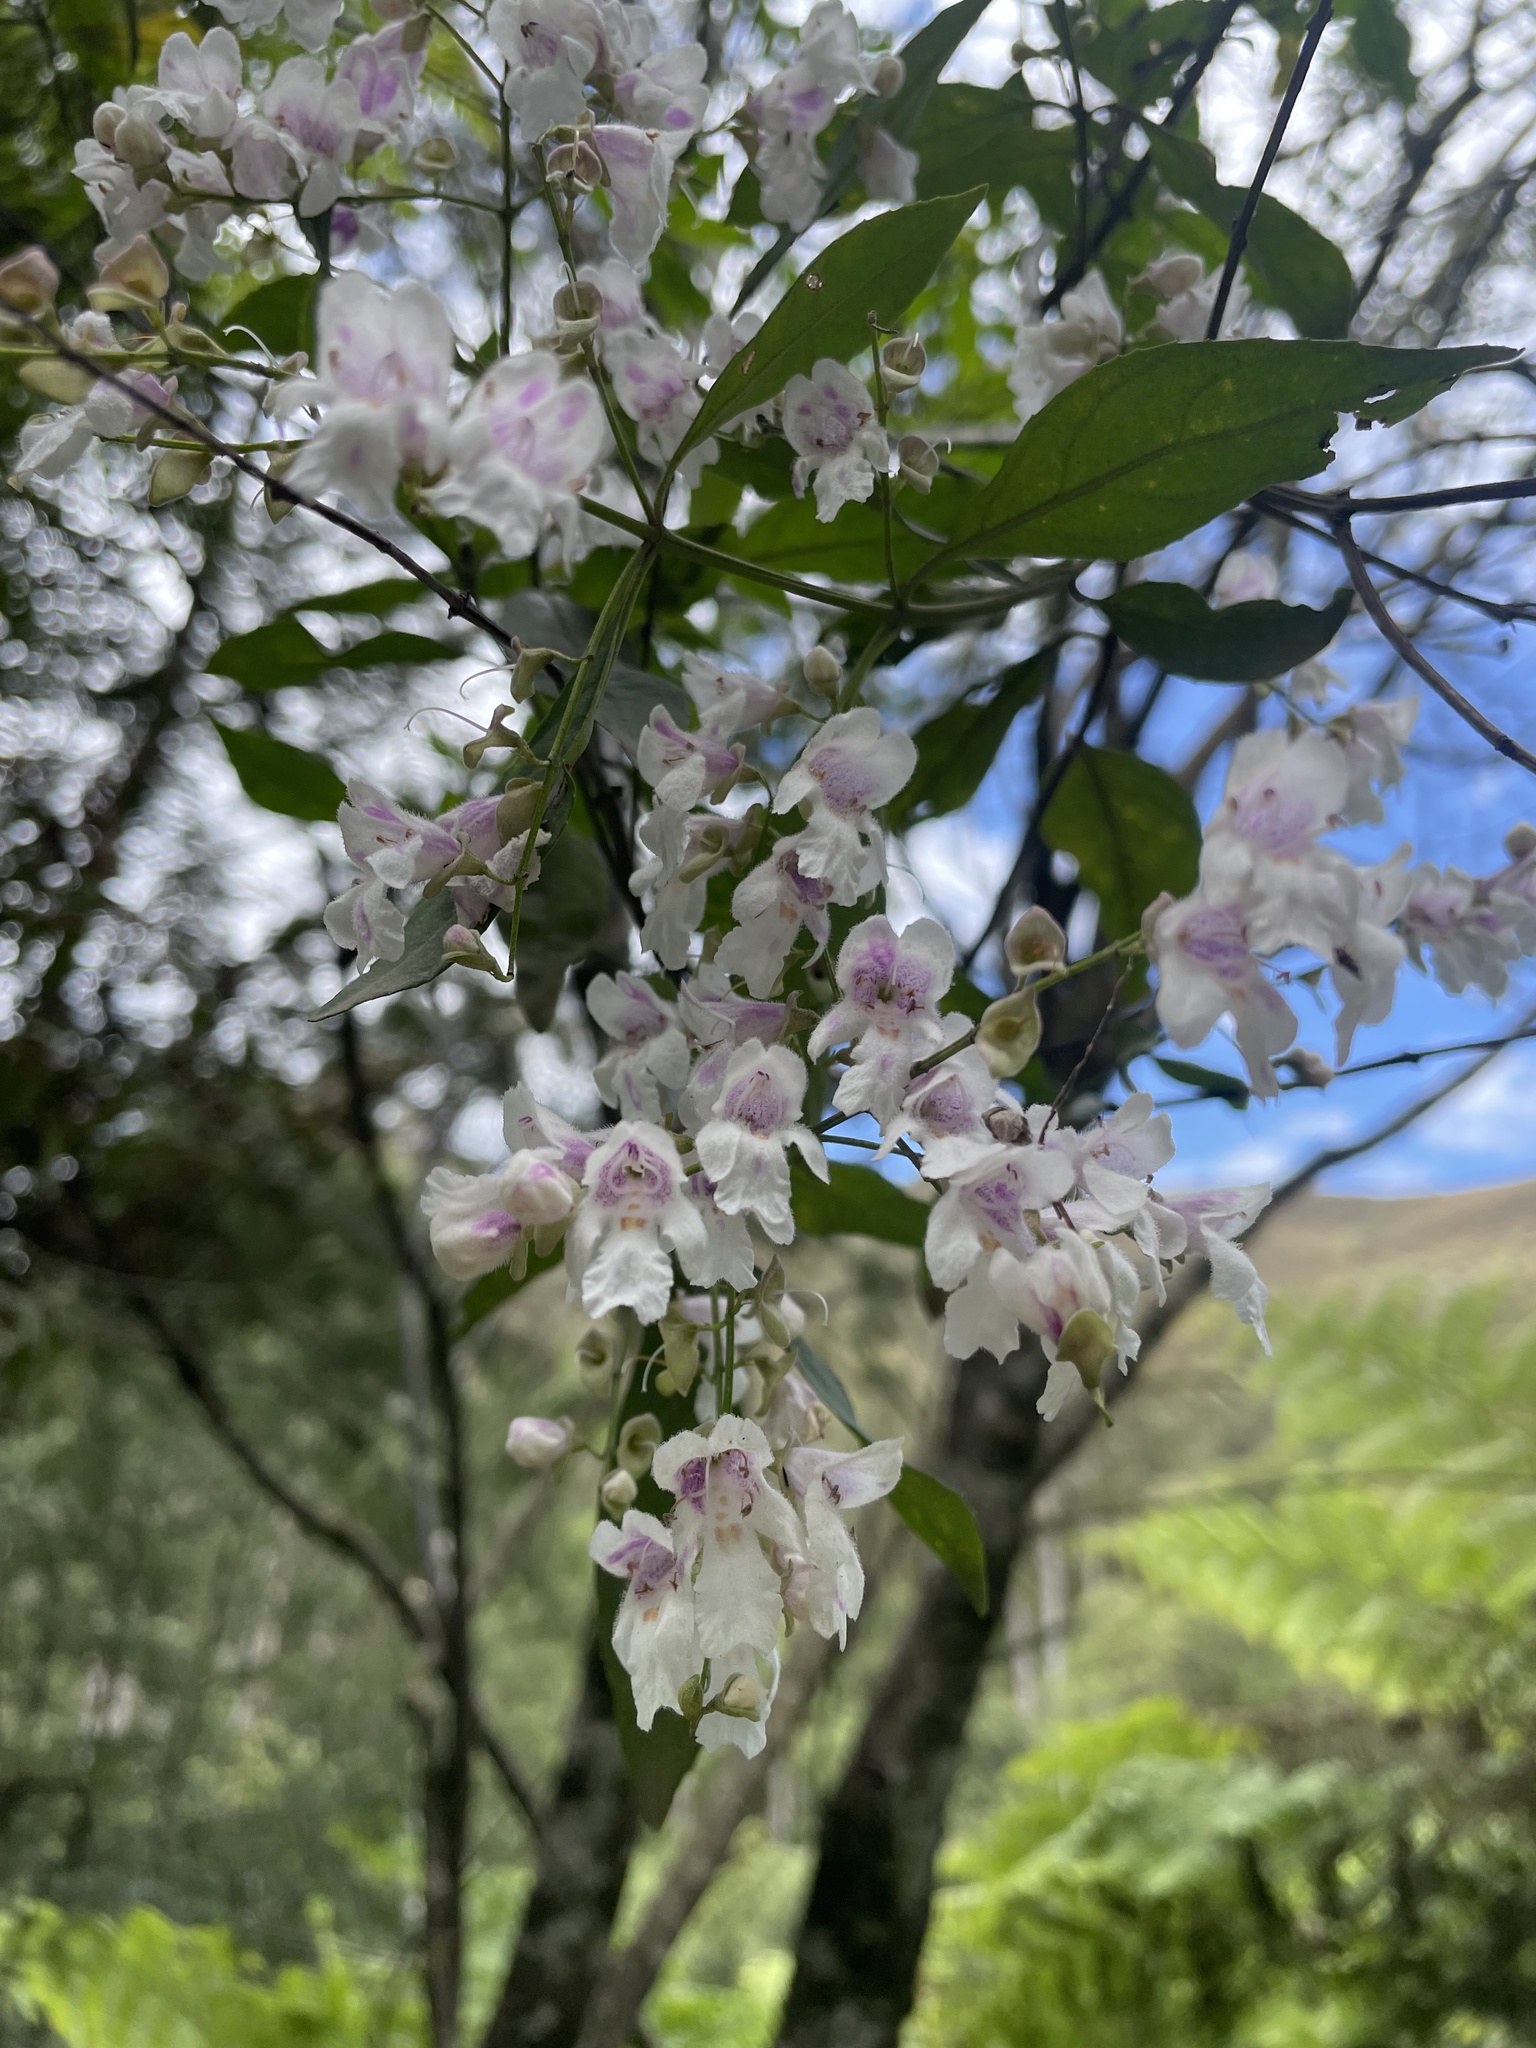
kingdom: Plantae
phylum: Tracheophyta
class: Magnoliopsida
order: Lamiales
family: Lamiaceae
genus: Prostanthera
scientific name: Prostanthera lasianthos
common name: Mountain-lilac
